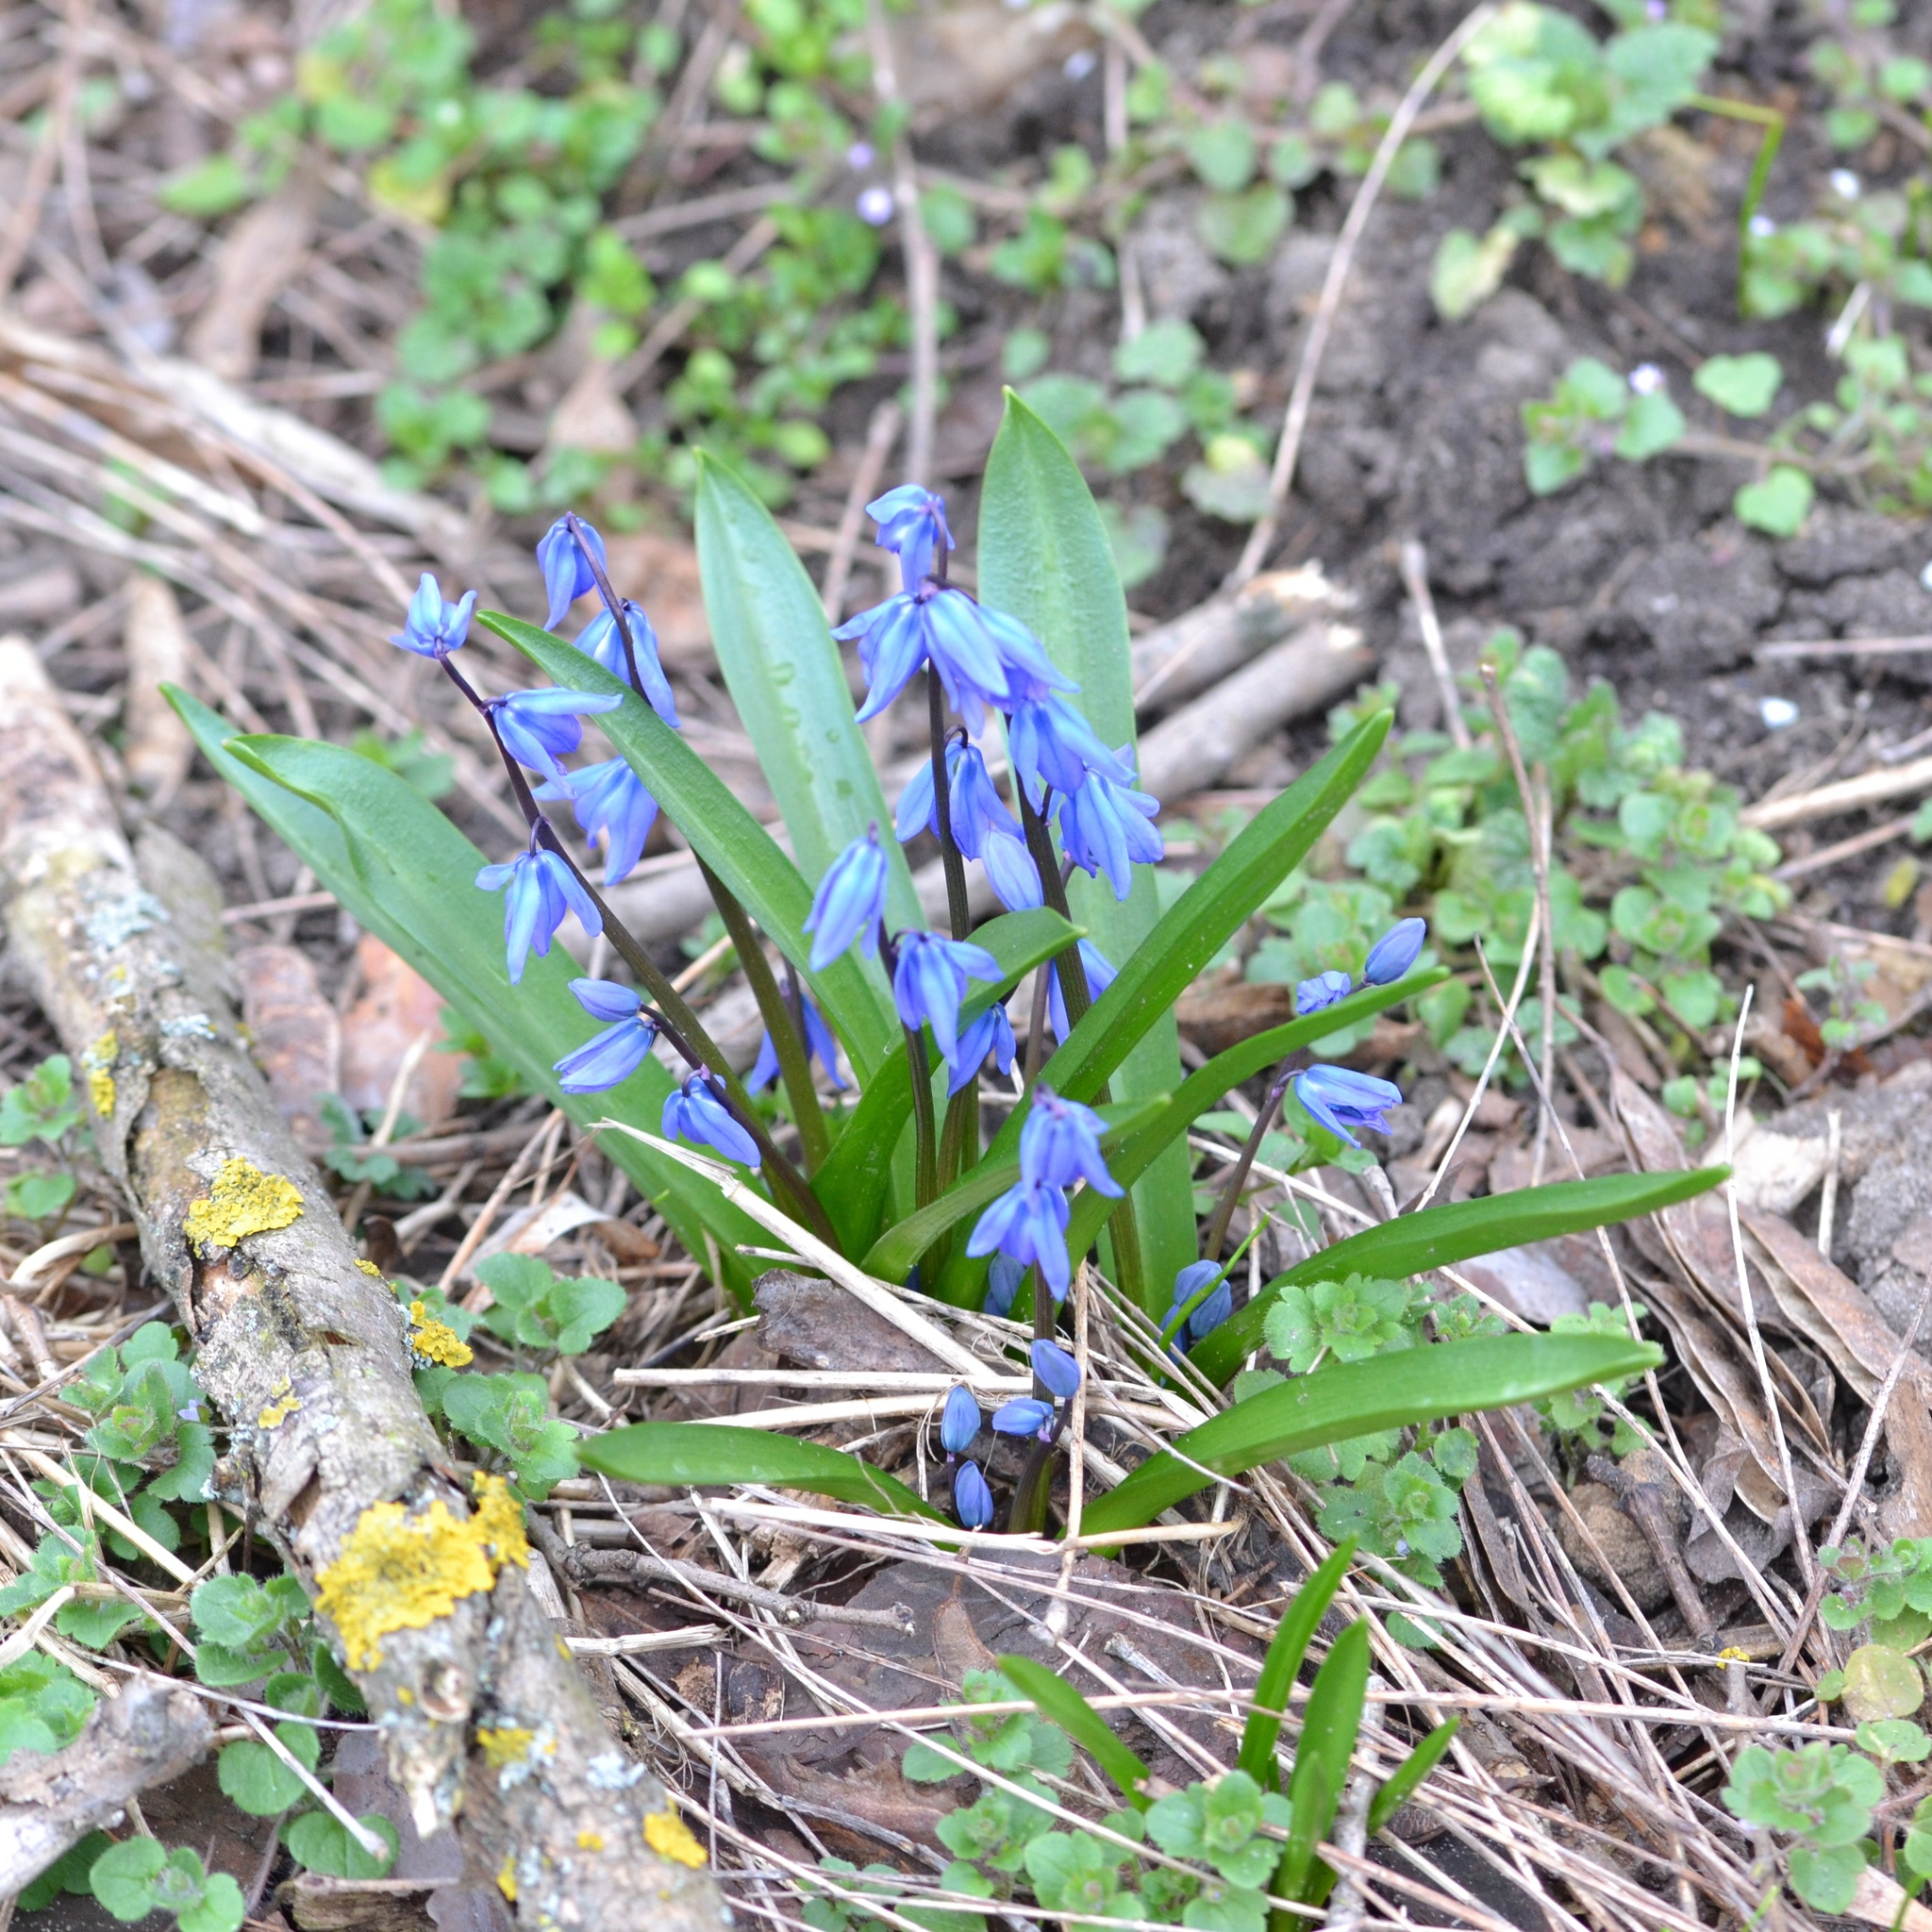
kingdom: Plantae
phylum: Tracheophyta
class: Liliopsida
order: Asparagales
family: Asparagaceae
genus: Scilla
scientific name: Scilla siberica
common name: Siberian squill
